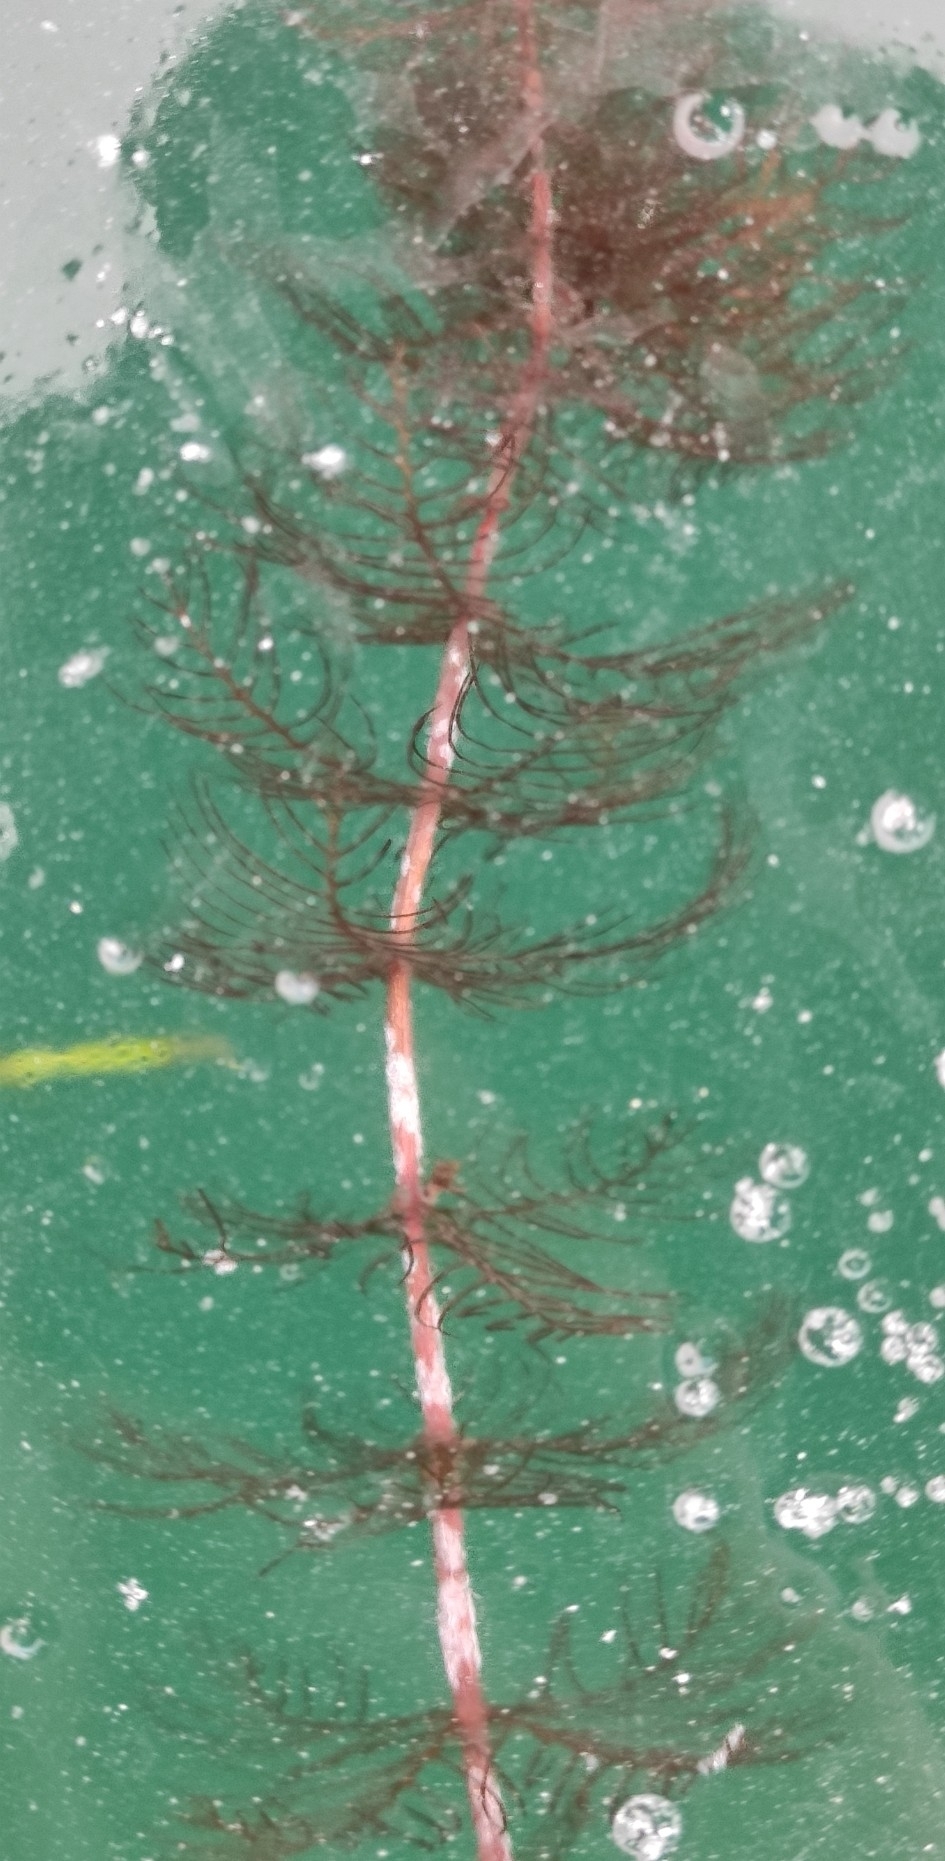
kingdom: Plantae
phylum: Tracheophyta
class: Magnoliopsida
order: Saxifragales
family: Haloragaceae
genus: Myriophyllum
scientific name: Myriophyllum sibiricum
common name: Siberian water-milfoil
